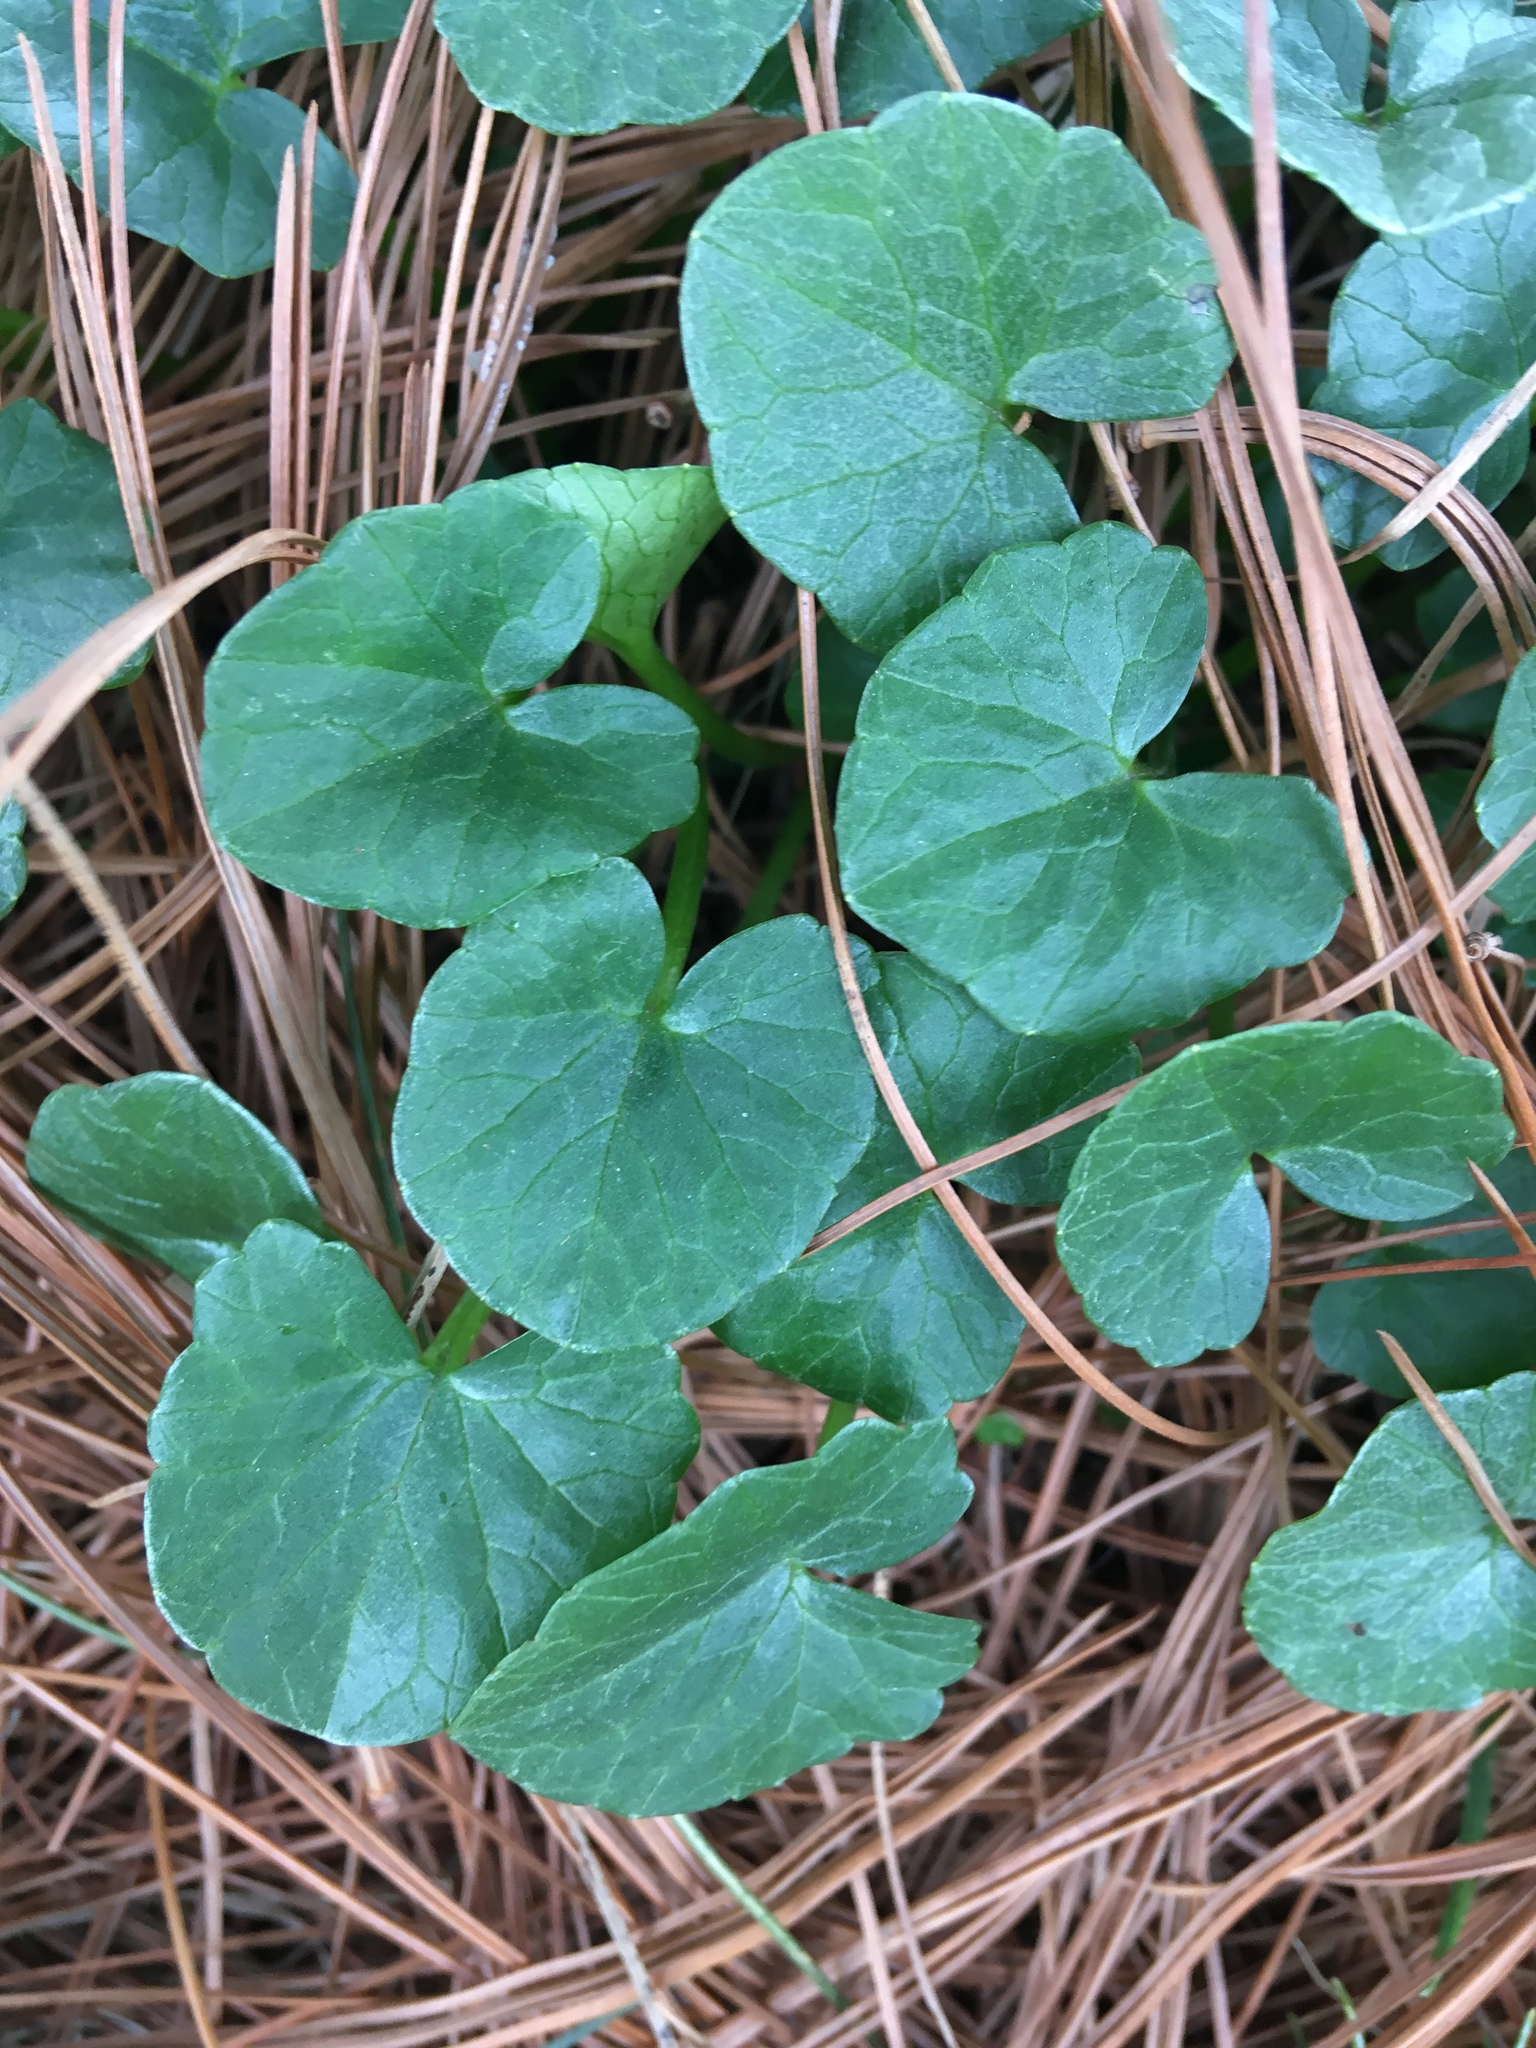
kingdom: Plantae
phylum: Tracheophyta
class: Magnoliopsida
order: Ranunculales
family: Ranunculaceae
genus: Ficaria
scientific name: Ficaria verna
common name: Lesser celandine
